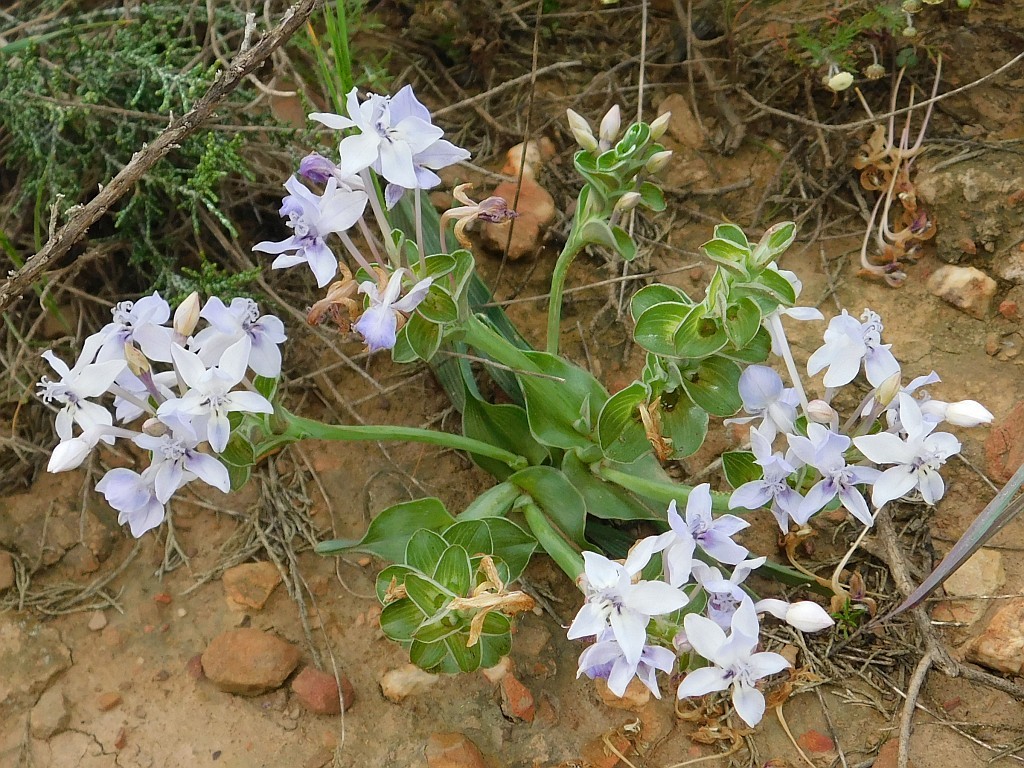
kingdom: Plantae
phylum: Tracheophyta
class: Liliopsida
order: Asparagales
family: Iridaceae
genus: Lapeirousia
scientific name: Lapeirousia pyramidalis
